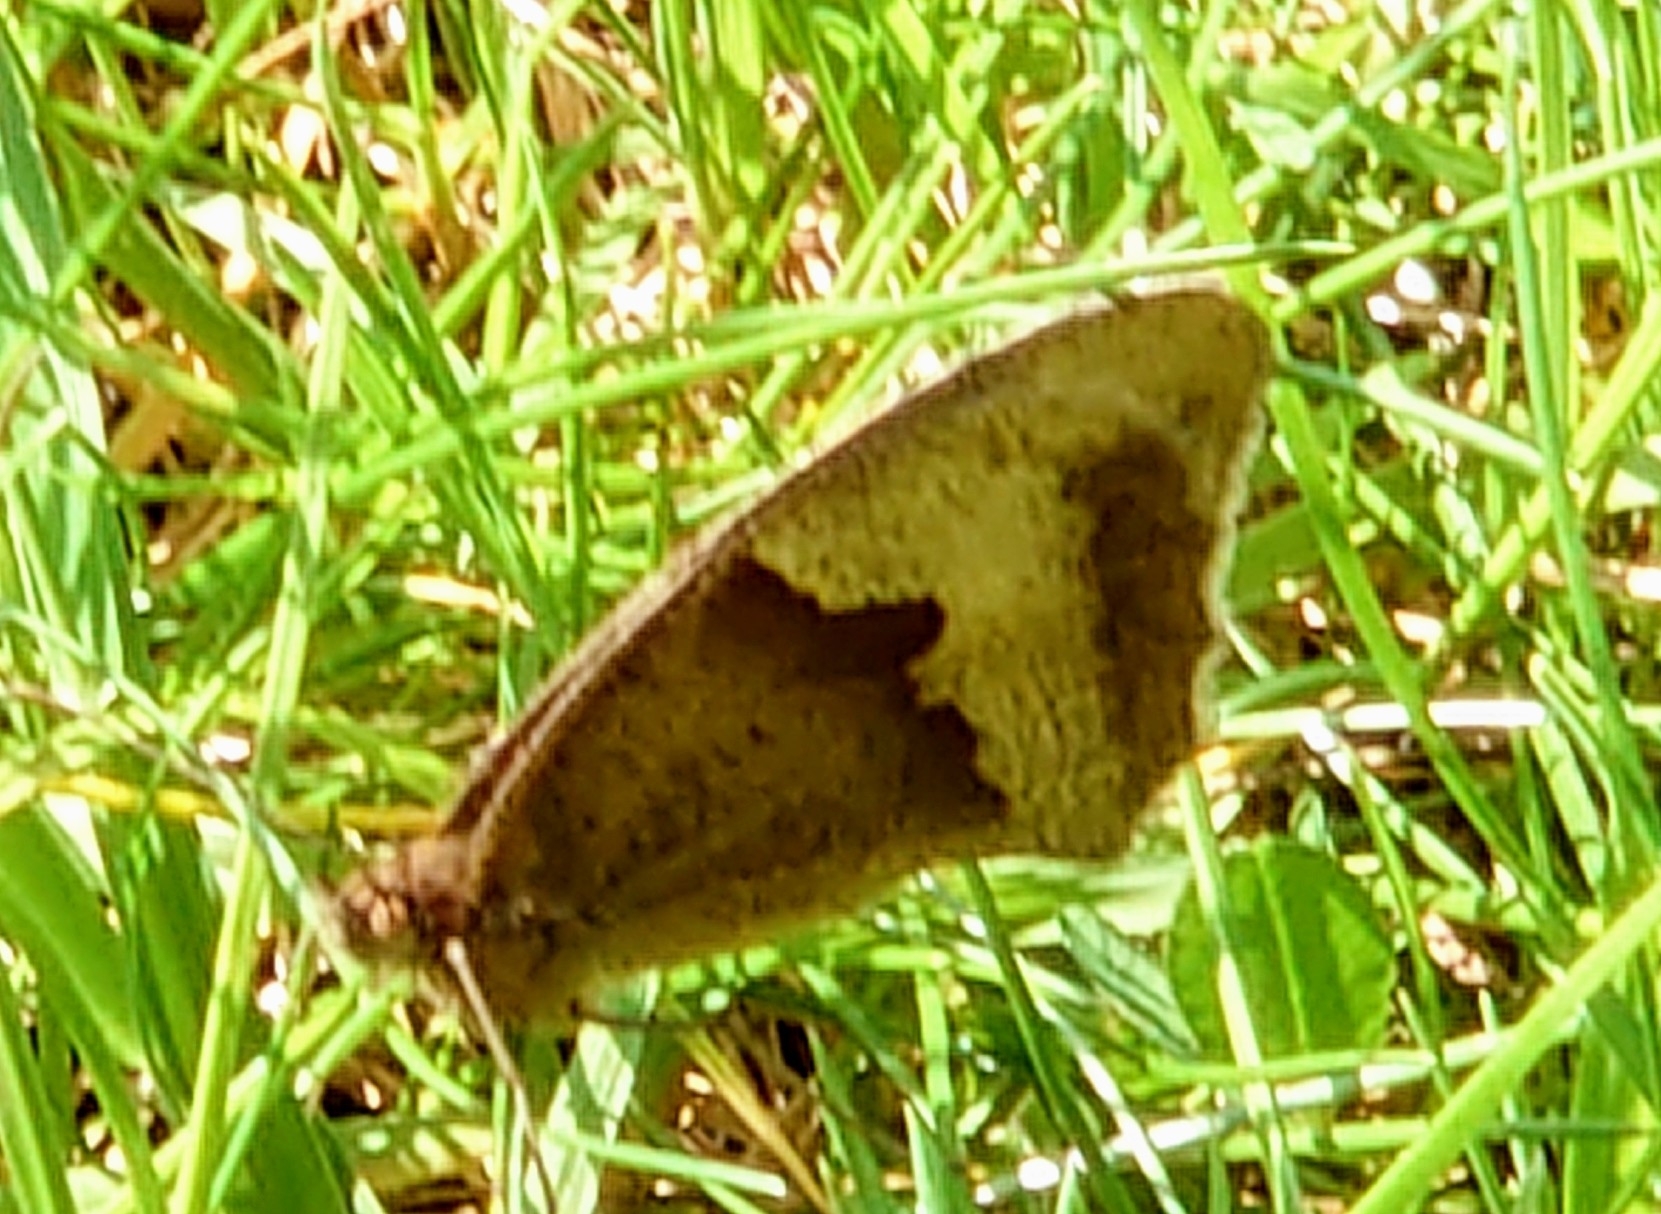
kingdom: Animalia
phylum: Arthropoda
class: Insecta
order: Lepidoptera
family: Nymphalidae
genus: Maniola
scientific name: Maniola jurtina
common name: Meadow brown
